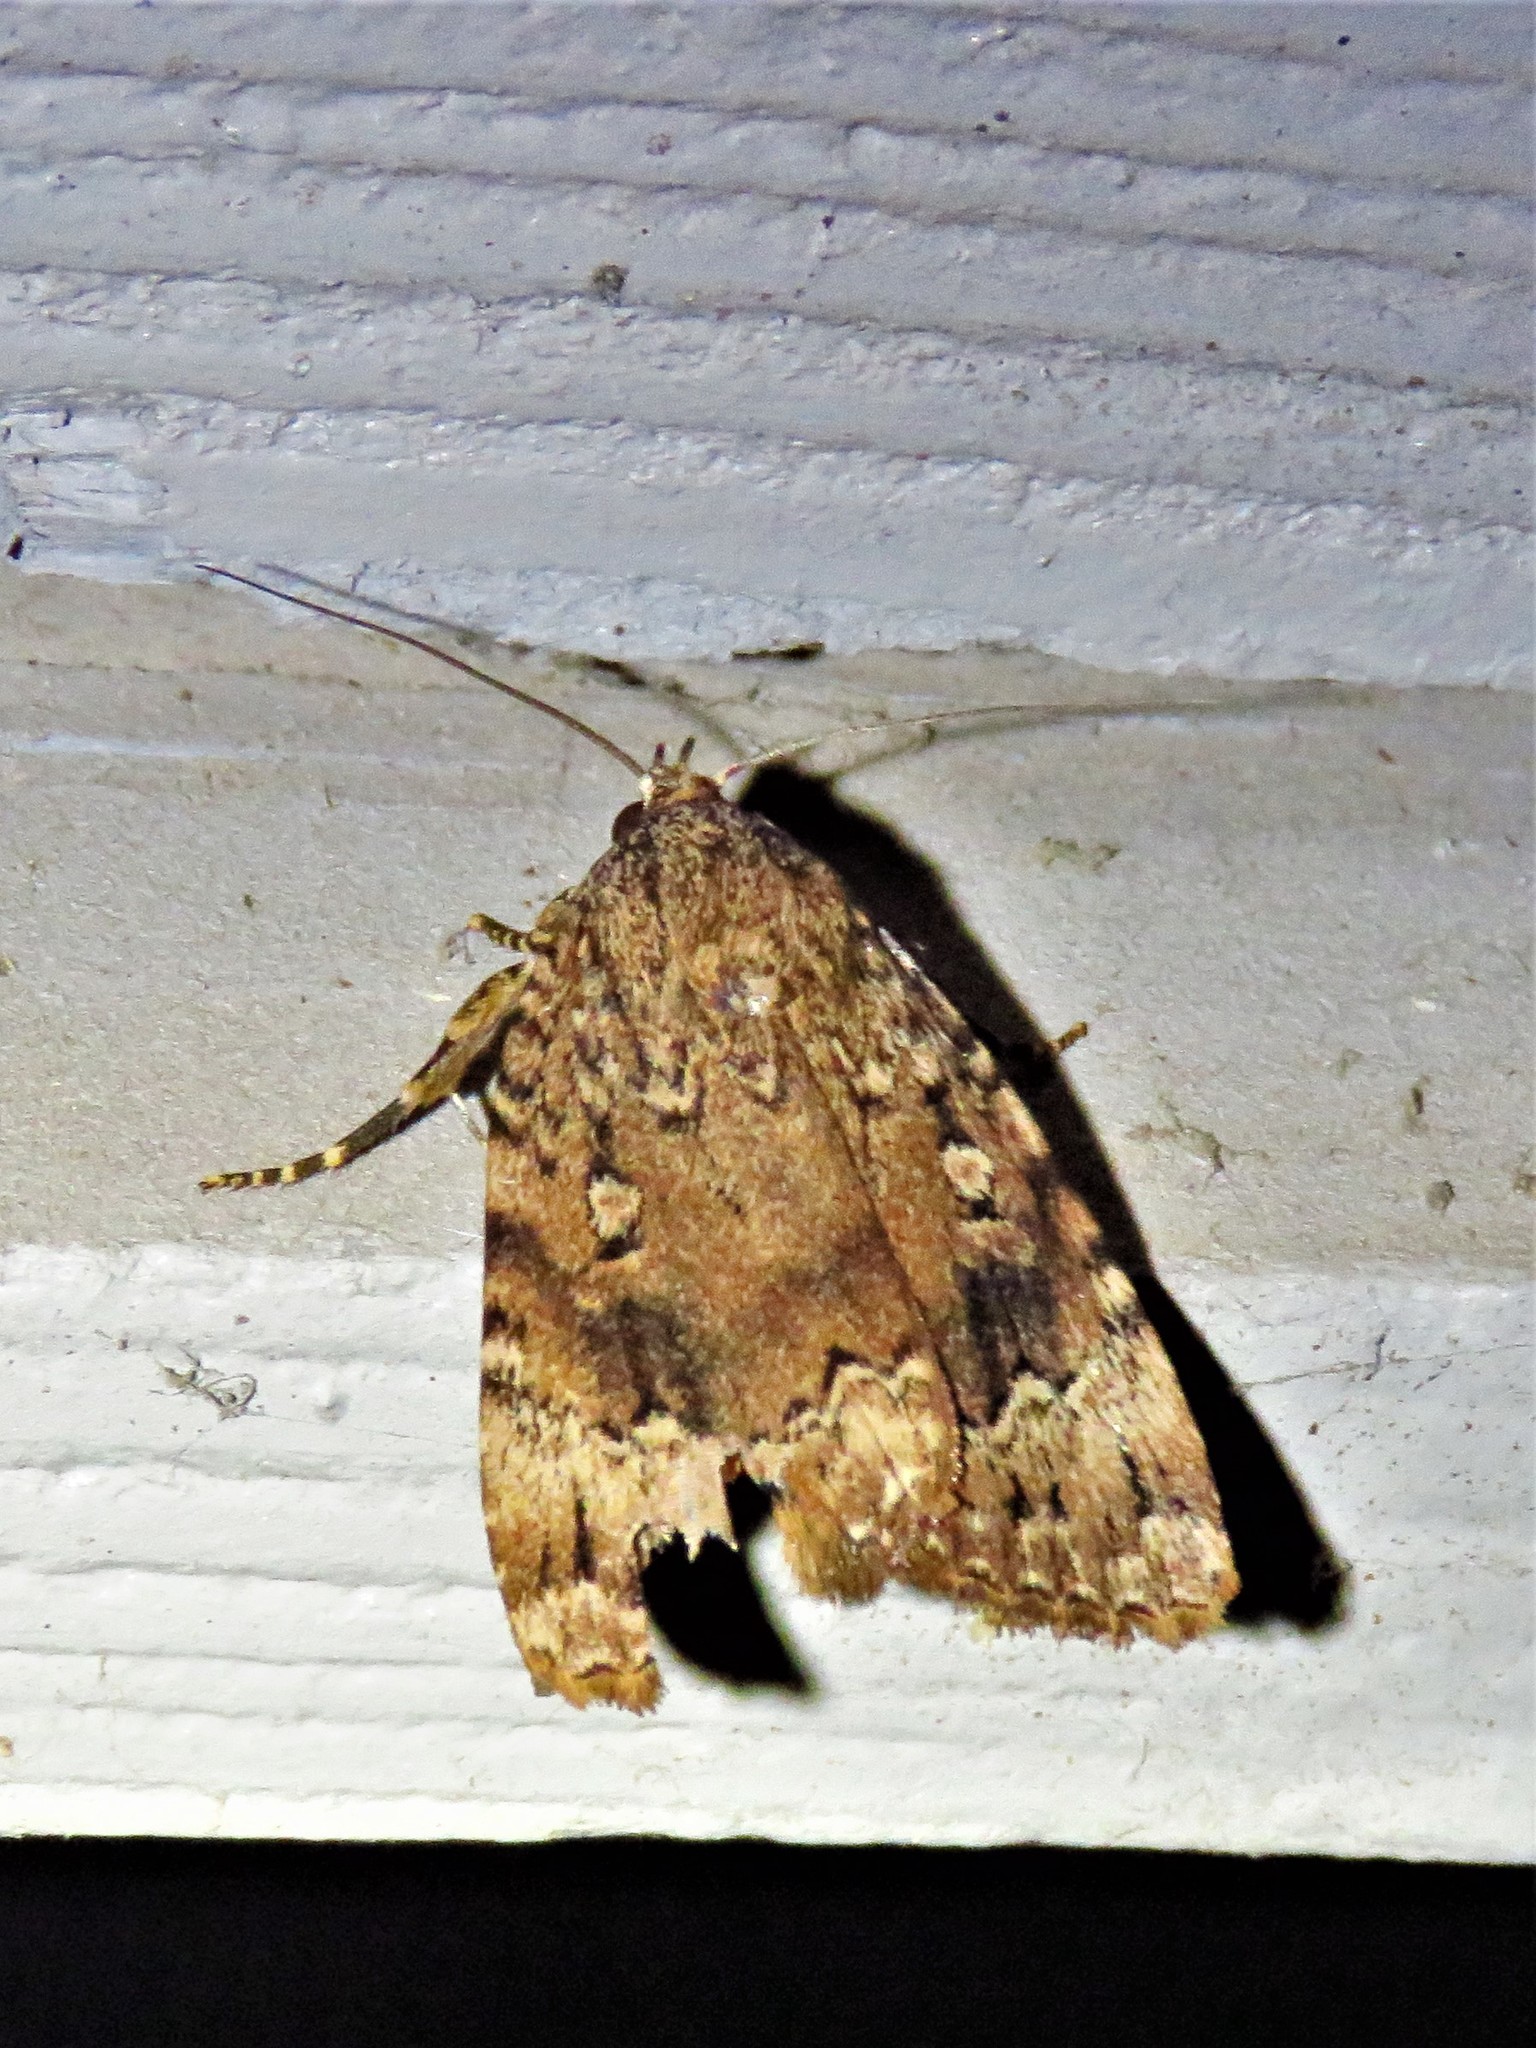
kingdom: Animalia
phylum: Arthropoda
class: Insecta
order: Lepidoptera
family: Noctuidae
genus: Amphipyra
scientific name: Amphipyra pyramidoides
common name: American copper underwing
